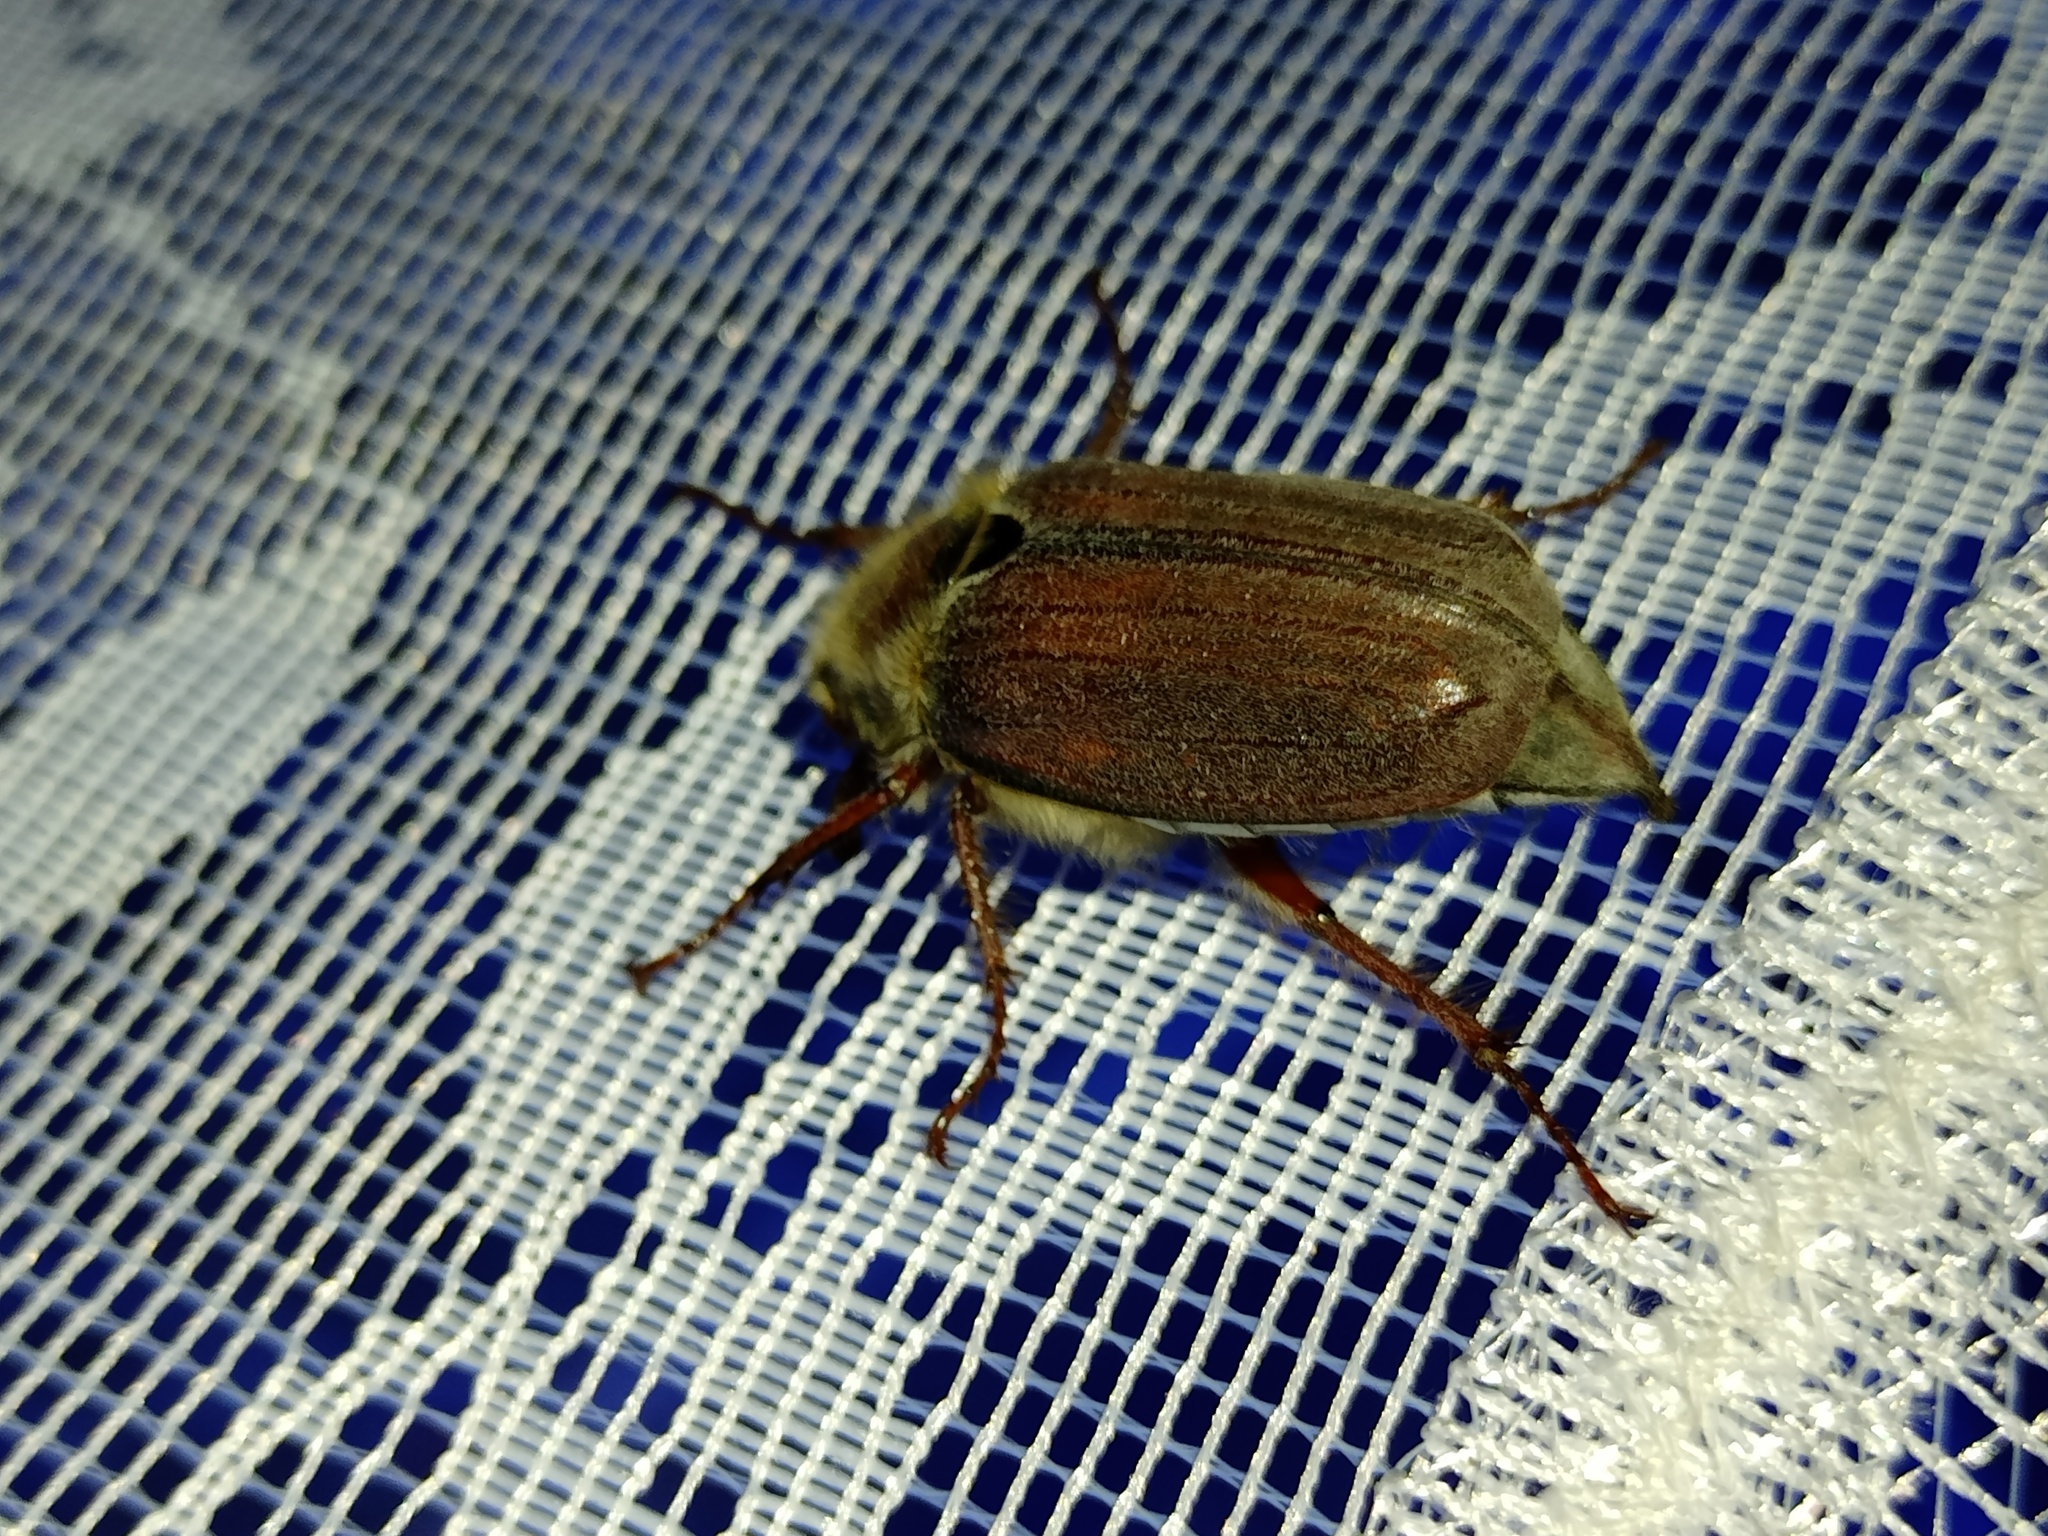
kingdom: Animalia
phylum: Arthropoda
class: Insecta
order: Coleoptera
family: Scarabaeidae
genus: Melolontha
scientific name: Melolontha melolontha
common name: Cockchafer maybeetle
